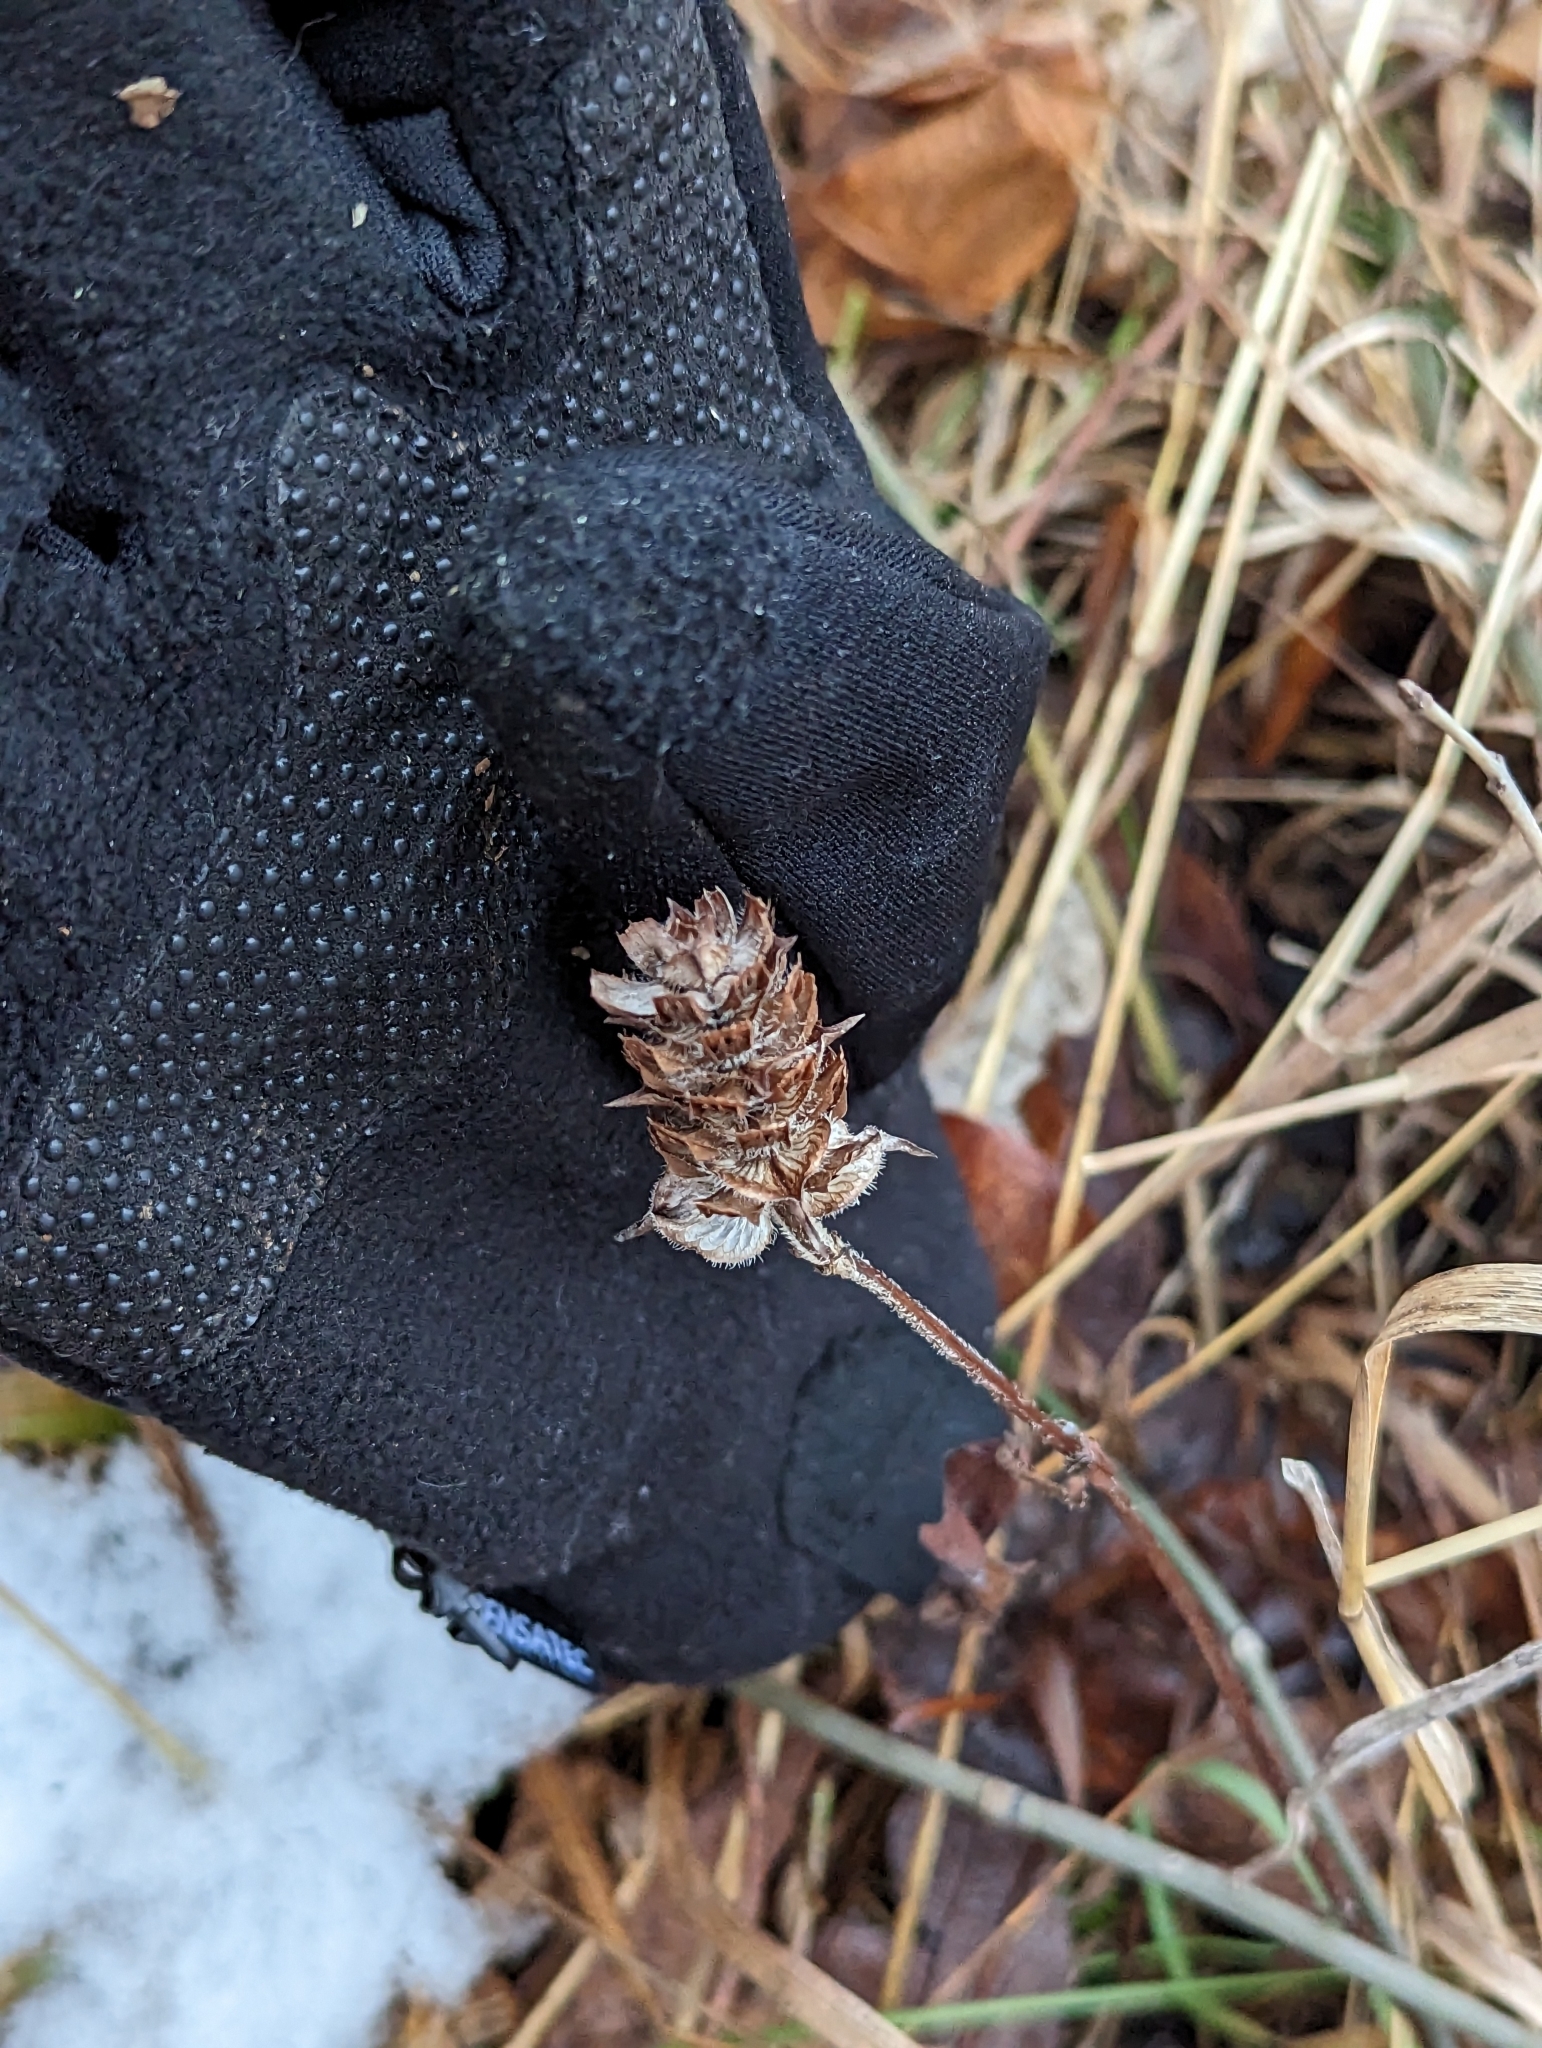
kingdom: Plantae
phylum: Tracheophyta
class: Magnoliopsida
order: Lamiales
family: Lamiaceae
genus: Prunella
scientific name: Prunella vulgaris
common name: Heal-all
